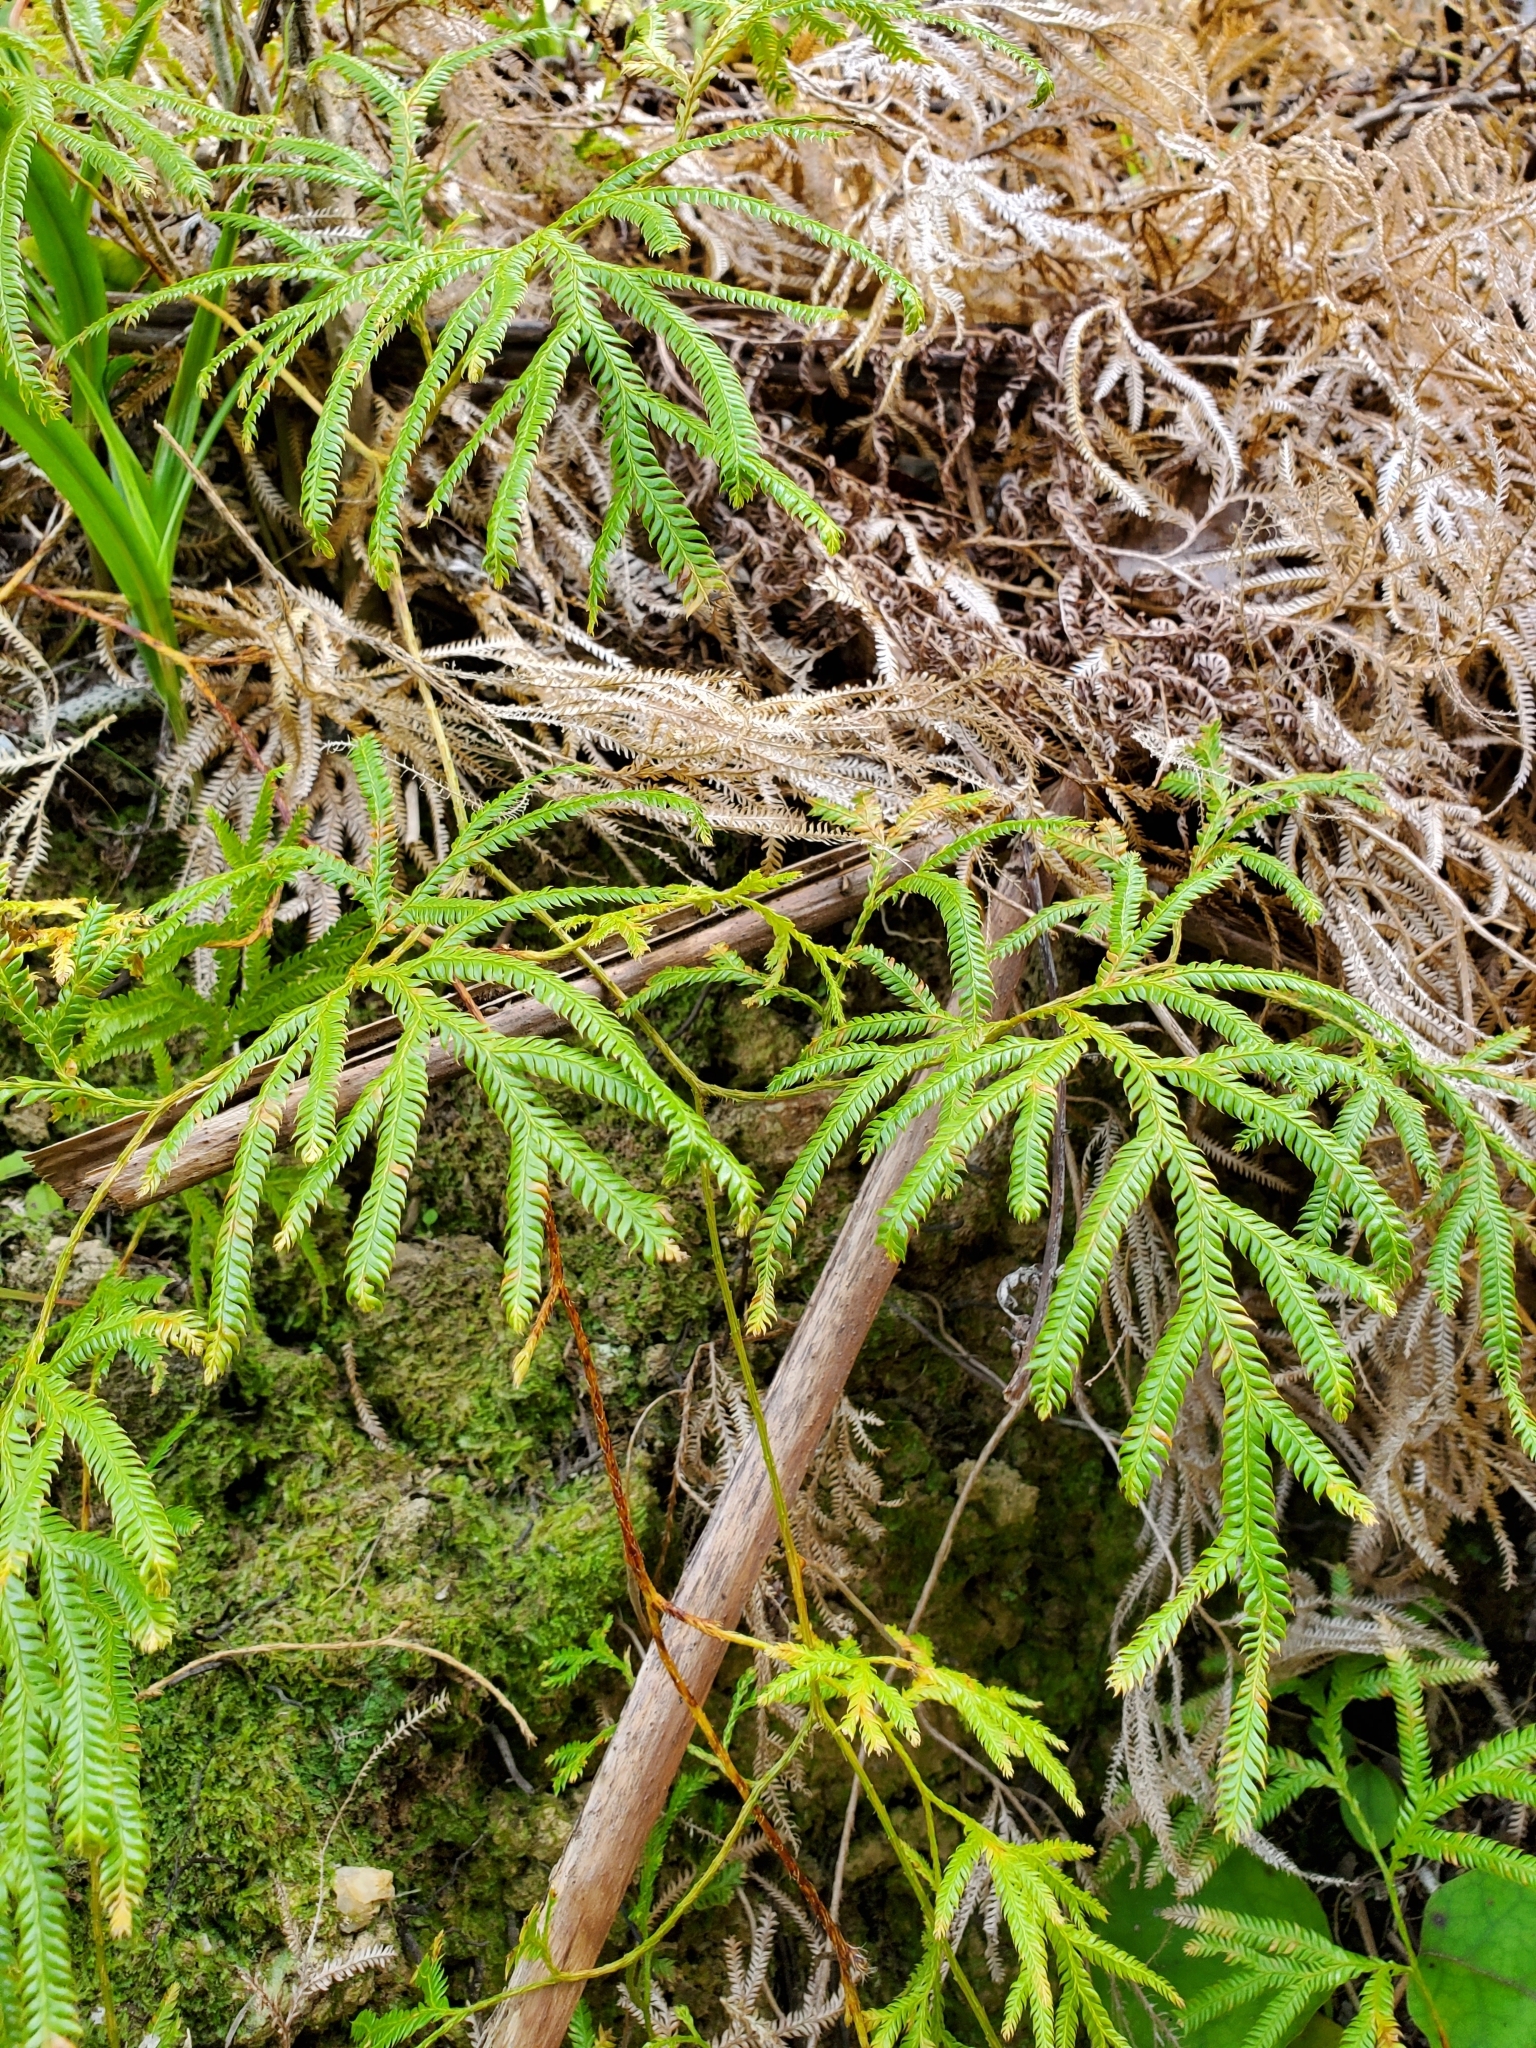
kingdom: Plantae
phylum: Tracheophyta
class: Lycopodiopsida
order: Lycopodiales
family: Lycopodiaceae
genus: Lycopodium
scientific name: Lycopodium volubile
